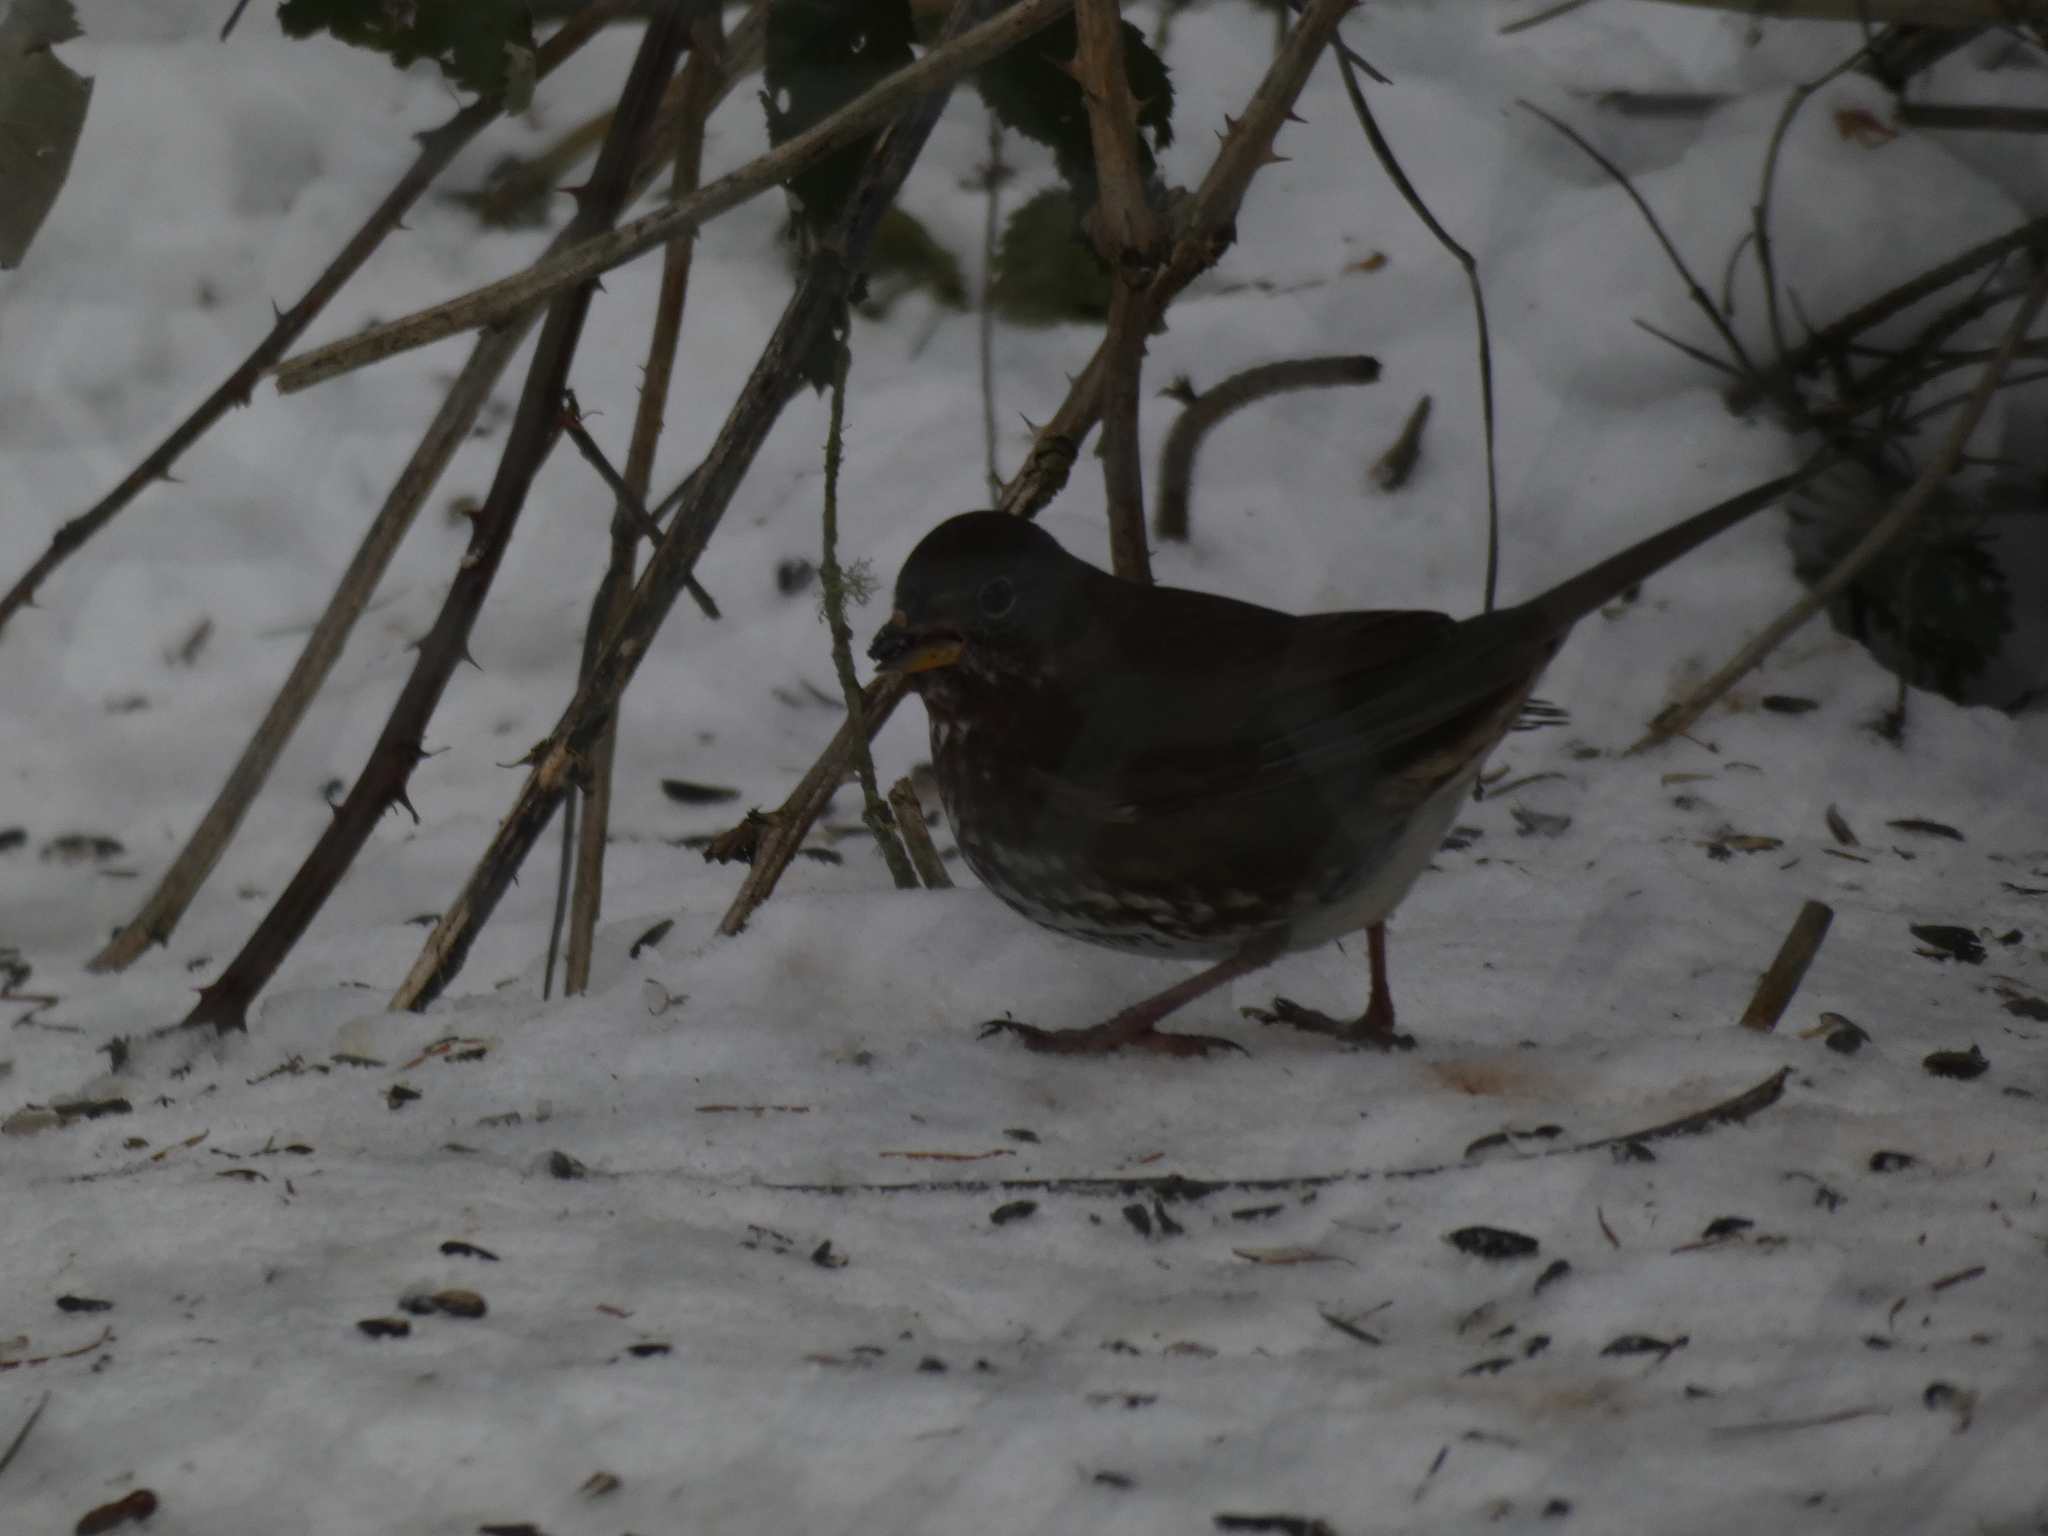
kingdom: Animalia
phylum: Chordata
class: Aves
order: Passeriformes
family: Passerellidae
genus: Passerella
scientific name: Passerella iliaca
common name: Fox sparrow
